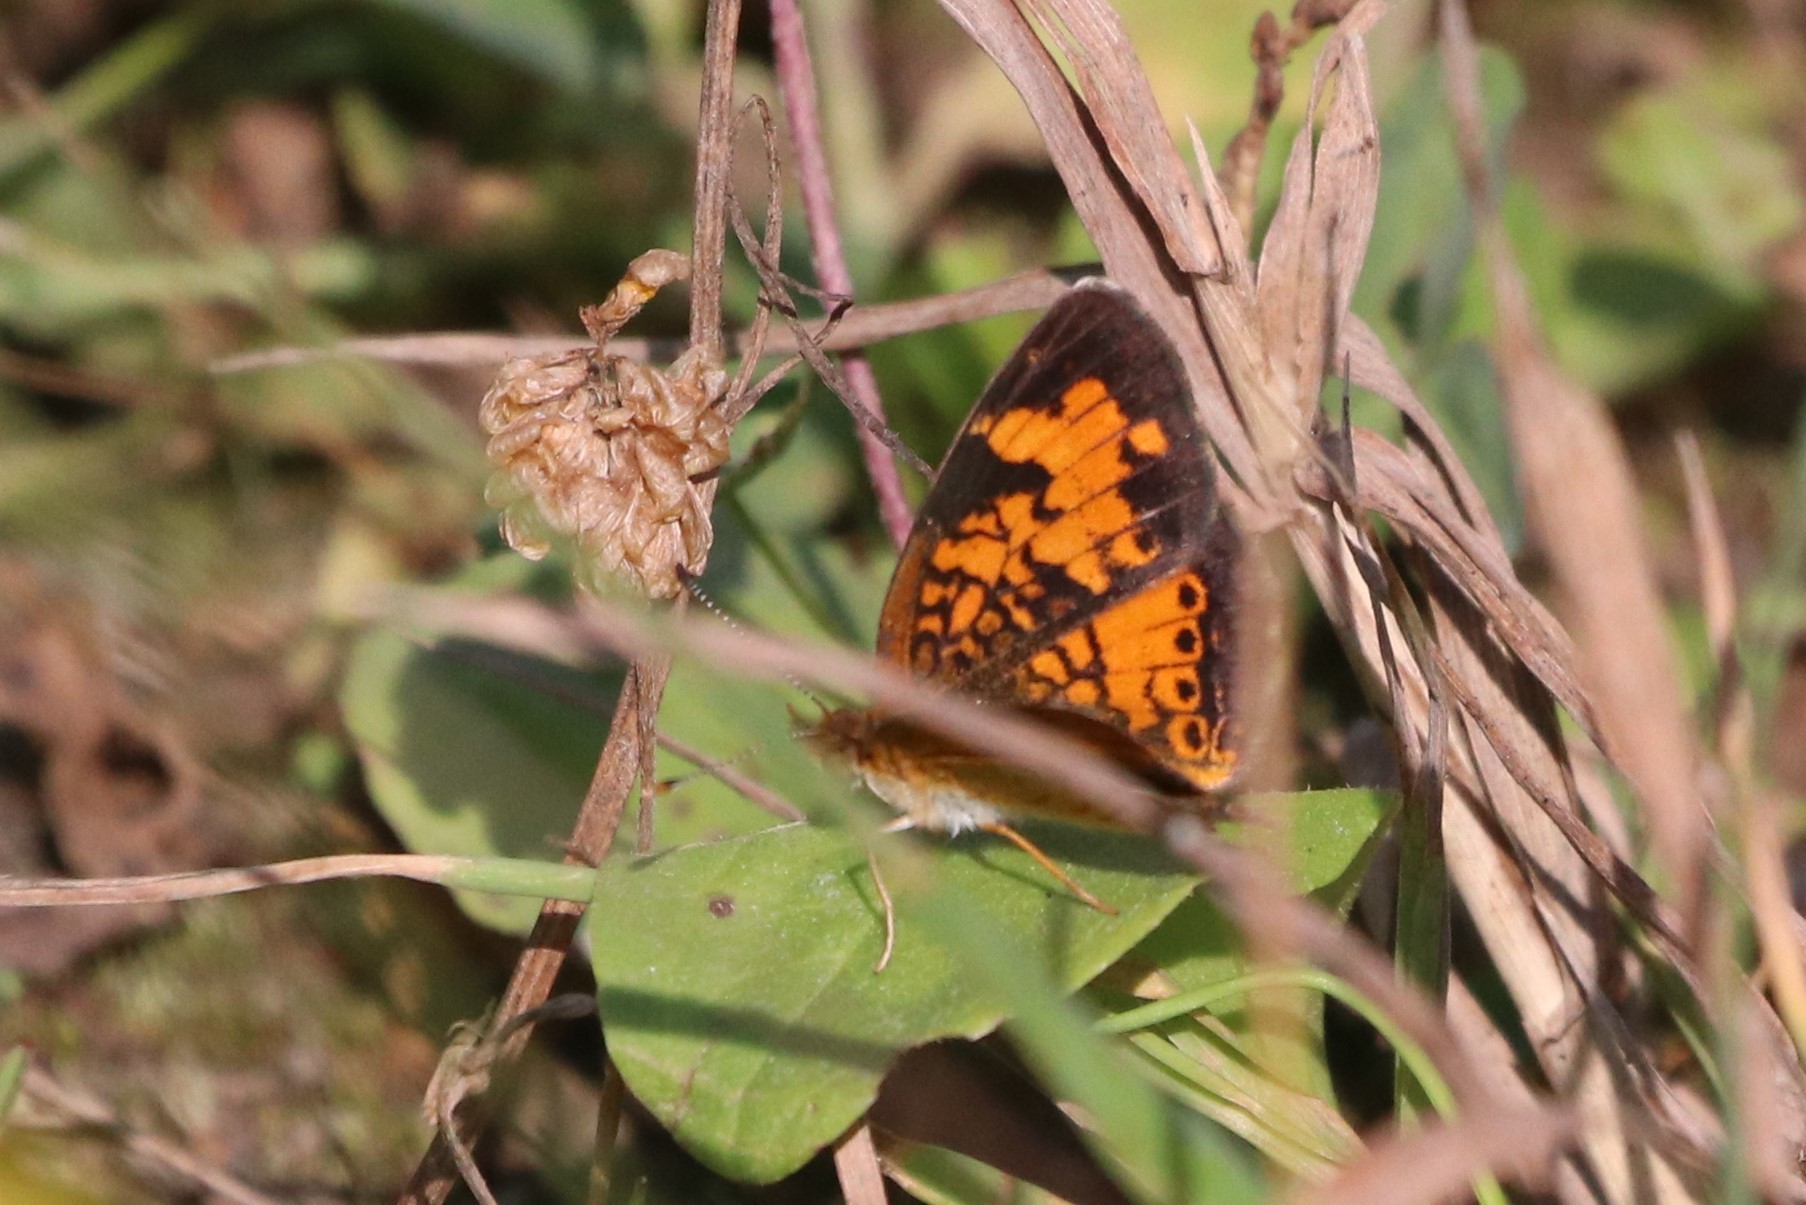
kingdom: Animalia
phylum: Arthropoda
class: Insecta
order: Lepidoptera
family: Nymphalidae
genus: Phyciodes
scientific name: Phyciodes tharos
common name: Pearl crescent
